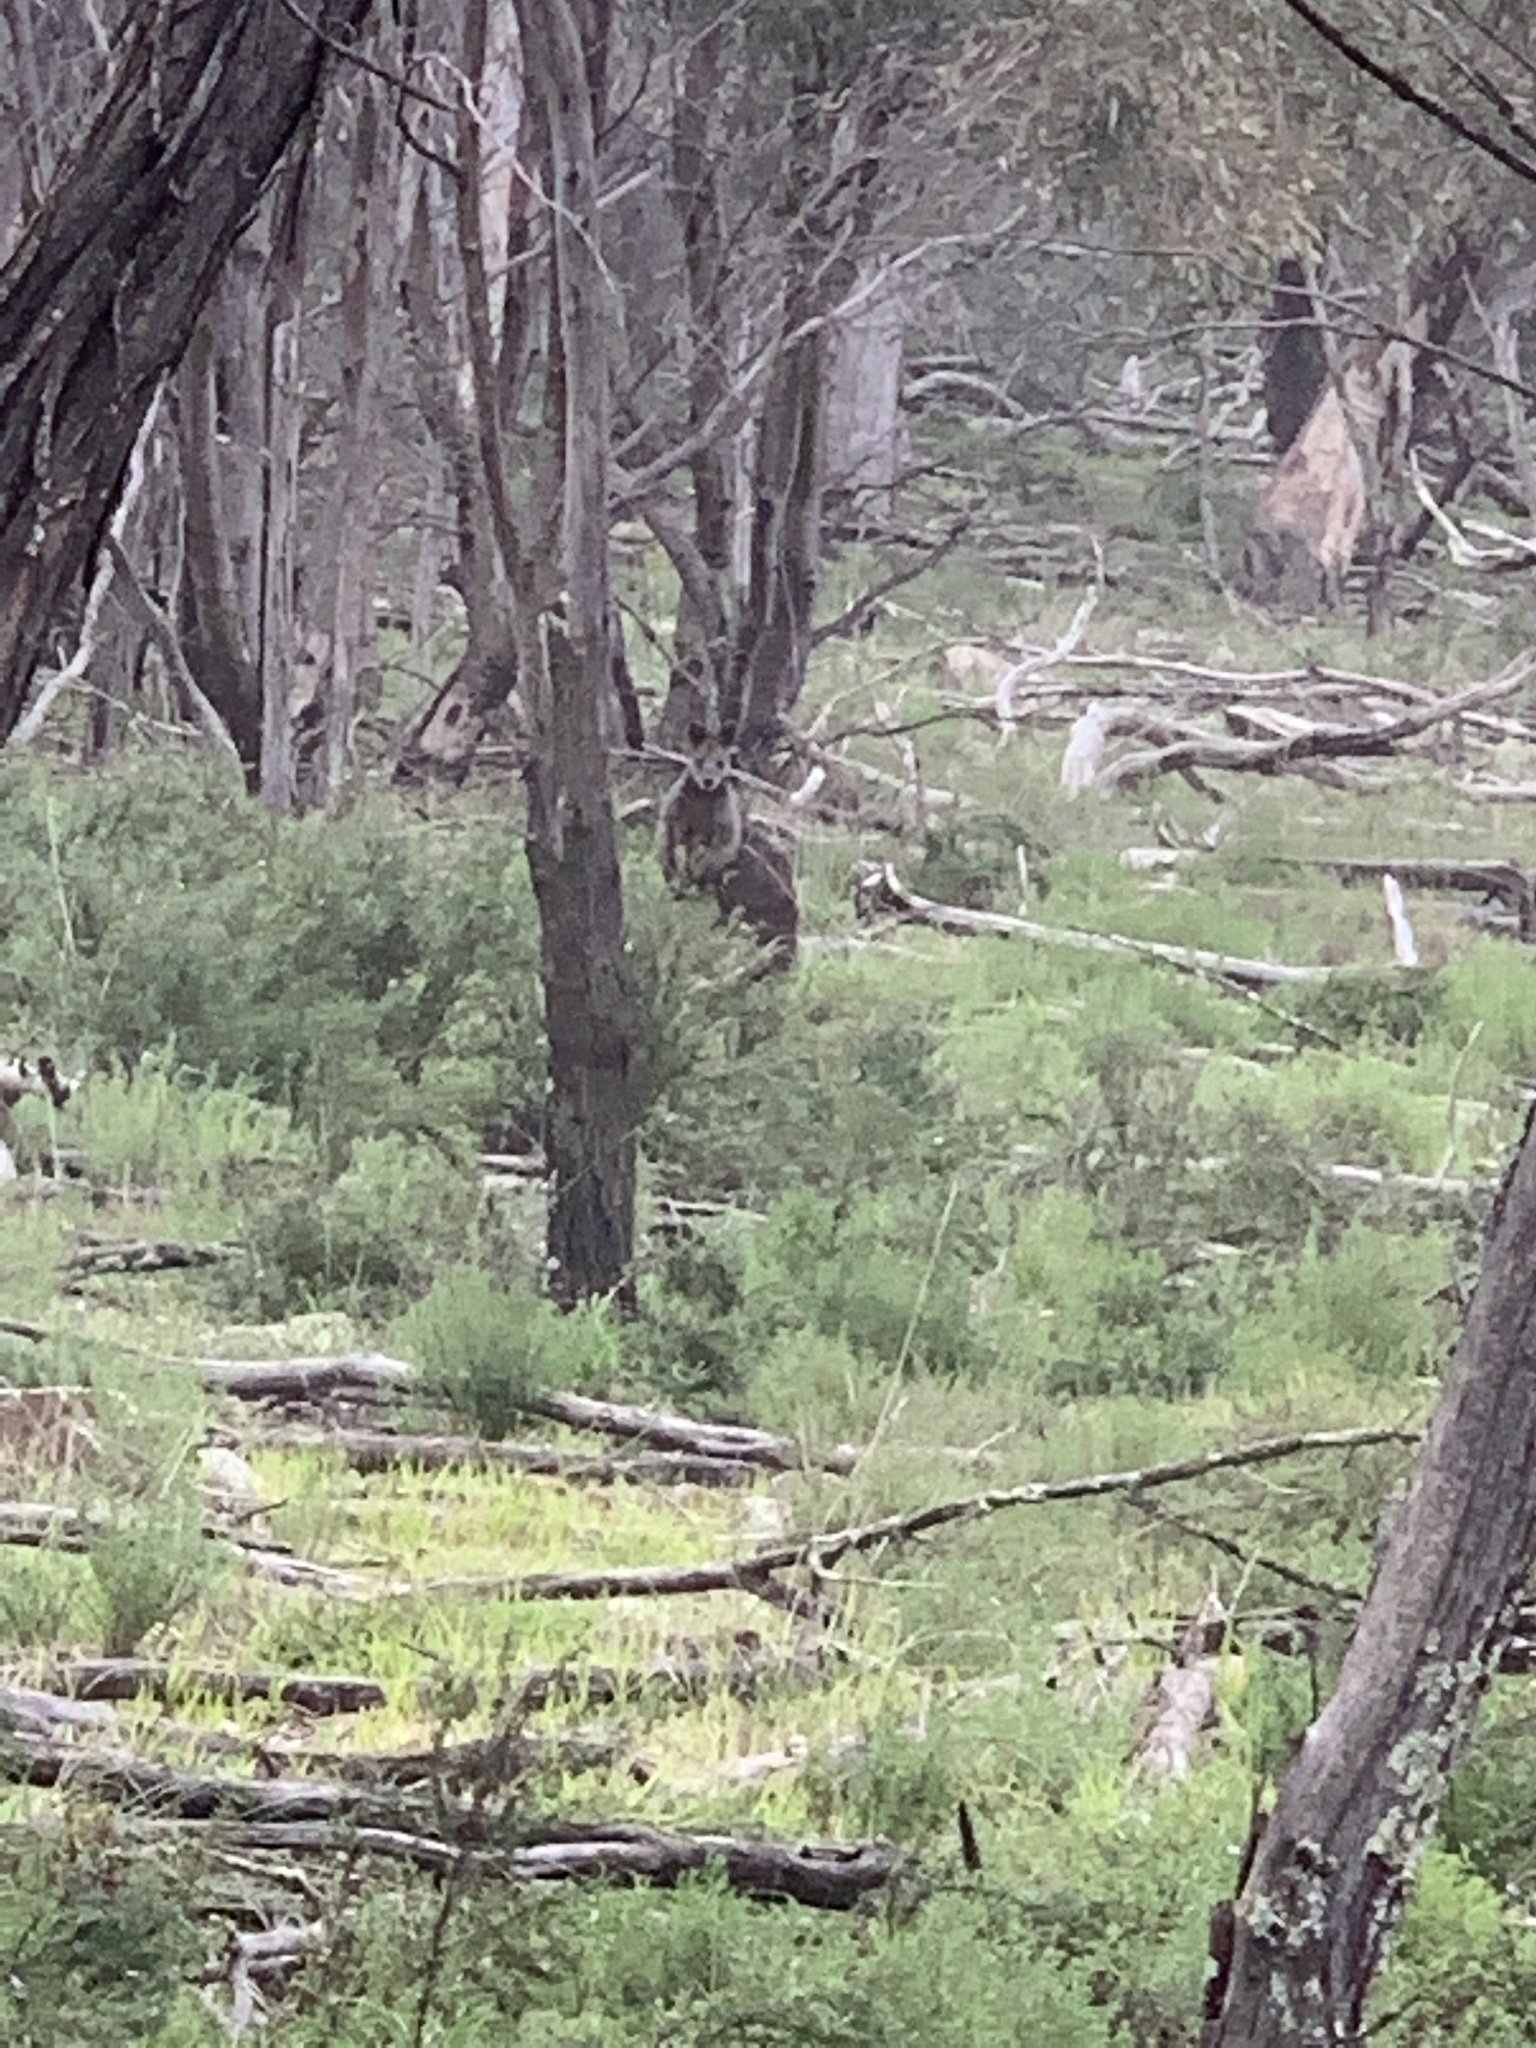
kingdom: Animalia
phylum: Chordata
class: Mammalia
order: Diprotodontia
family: Macropodidae
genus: Wallabia
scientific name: Wallabia bicolor
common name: Swamp wallaby
